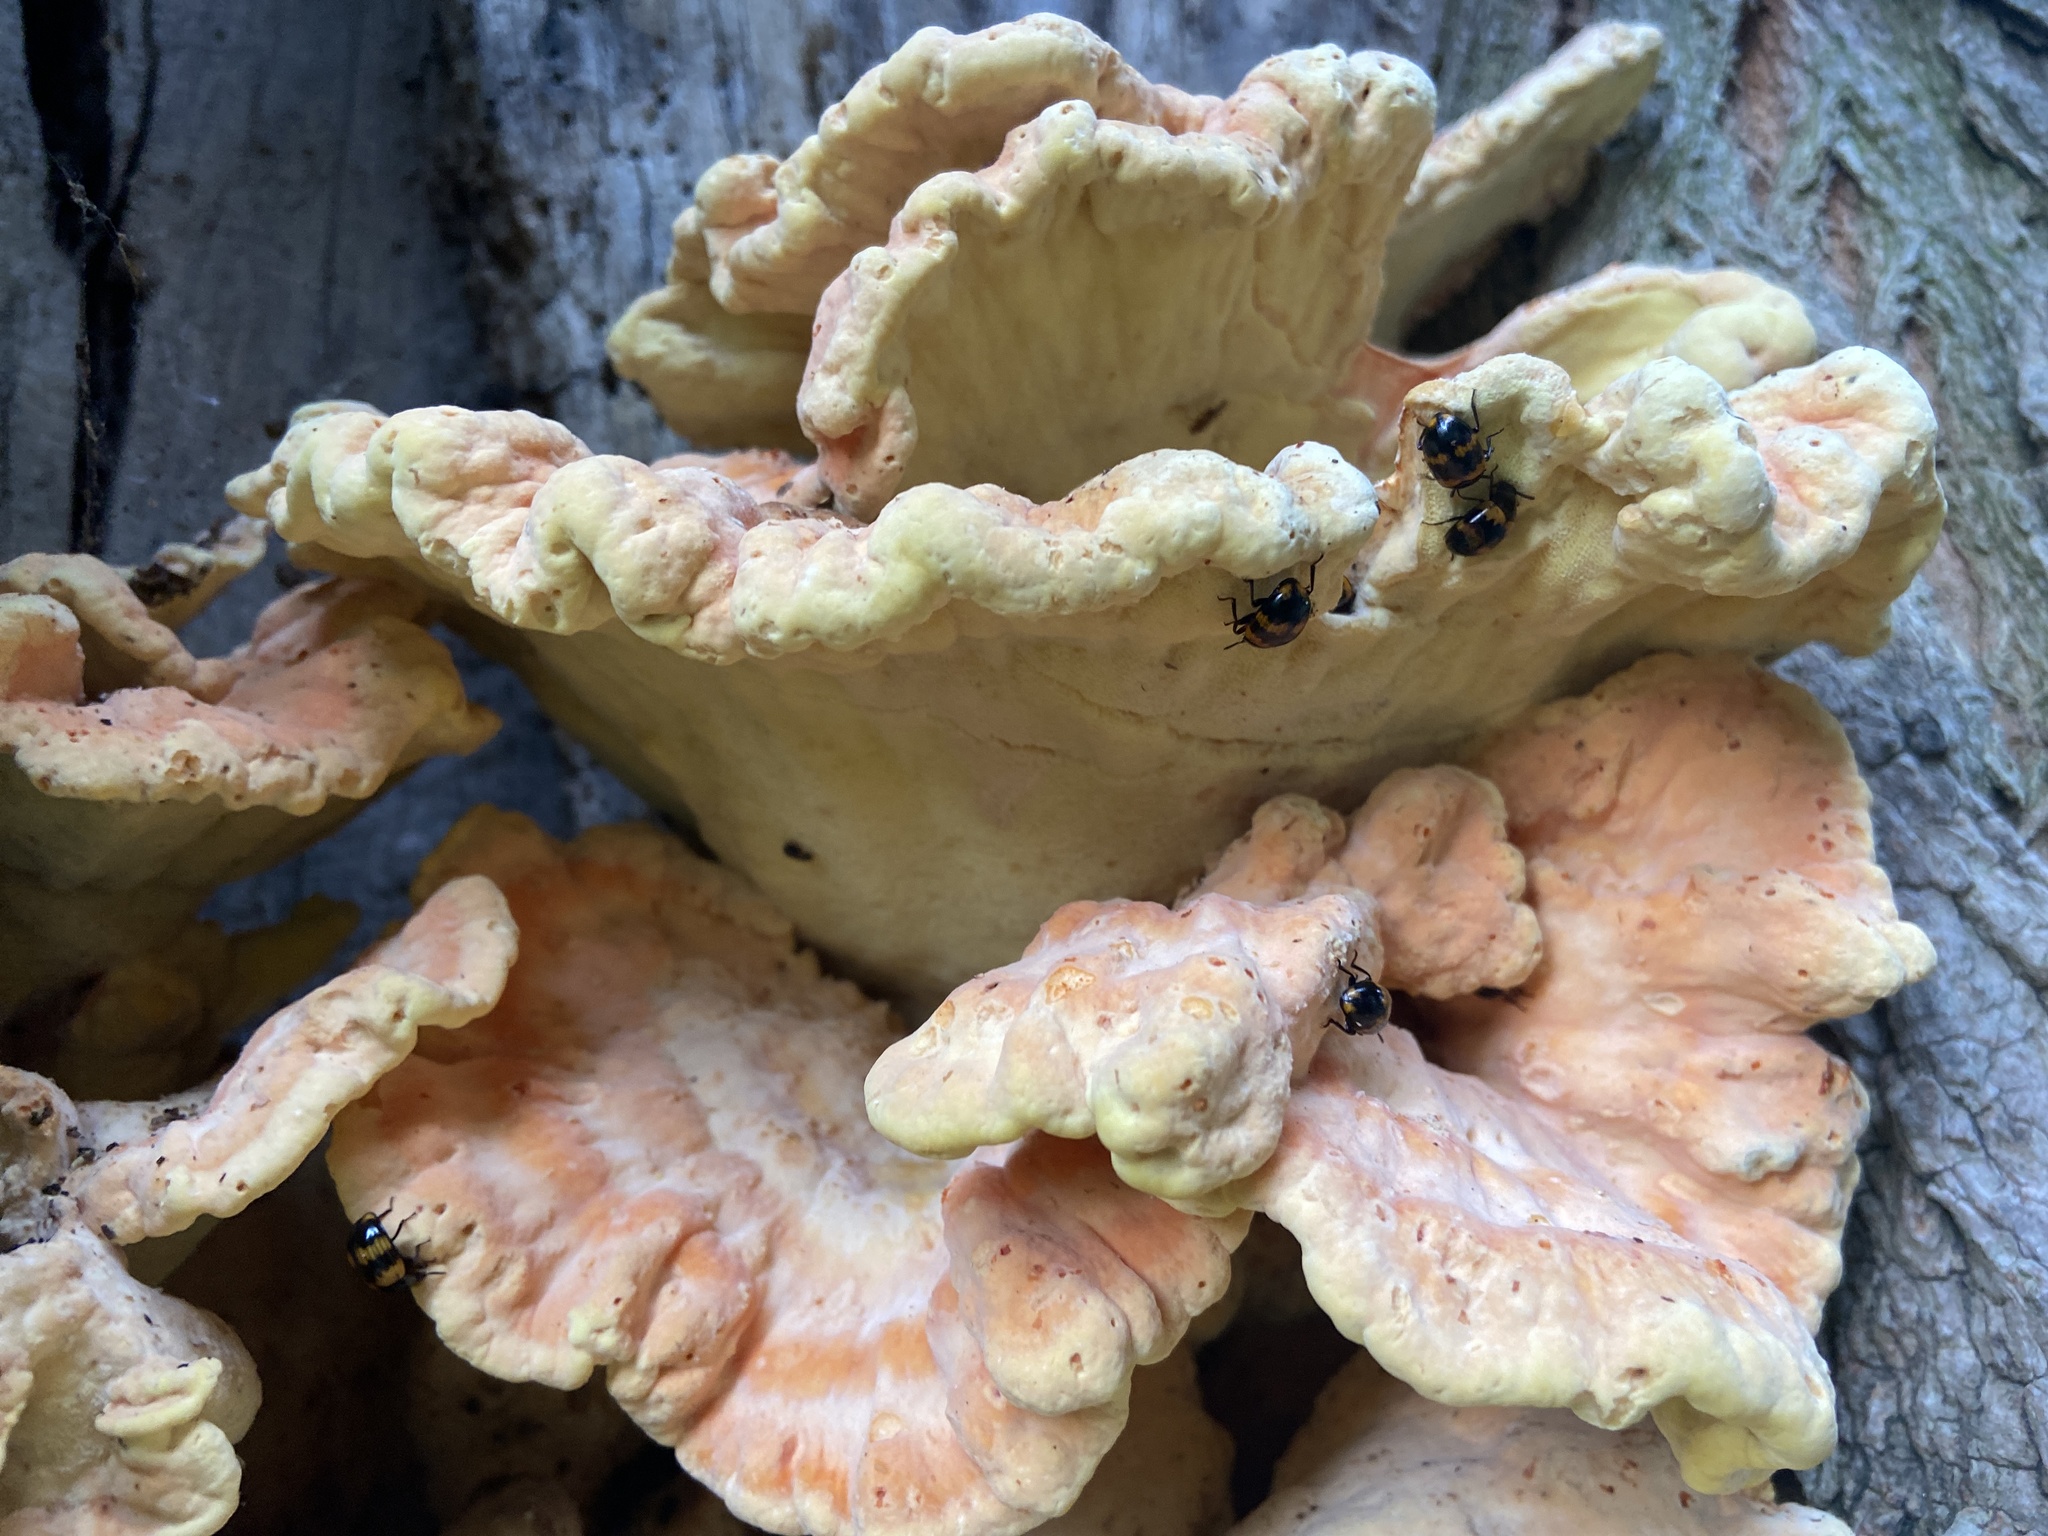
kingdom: Fungi
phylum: Basidiomycota
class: Agaricomycetes
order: Polyporales
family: Laetiporaceae
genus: Laetiporus
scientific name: Laetiporus sulphureus
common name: Chicken of the woods
